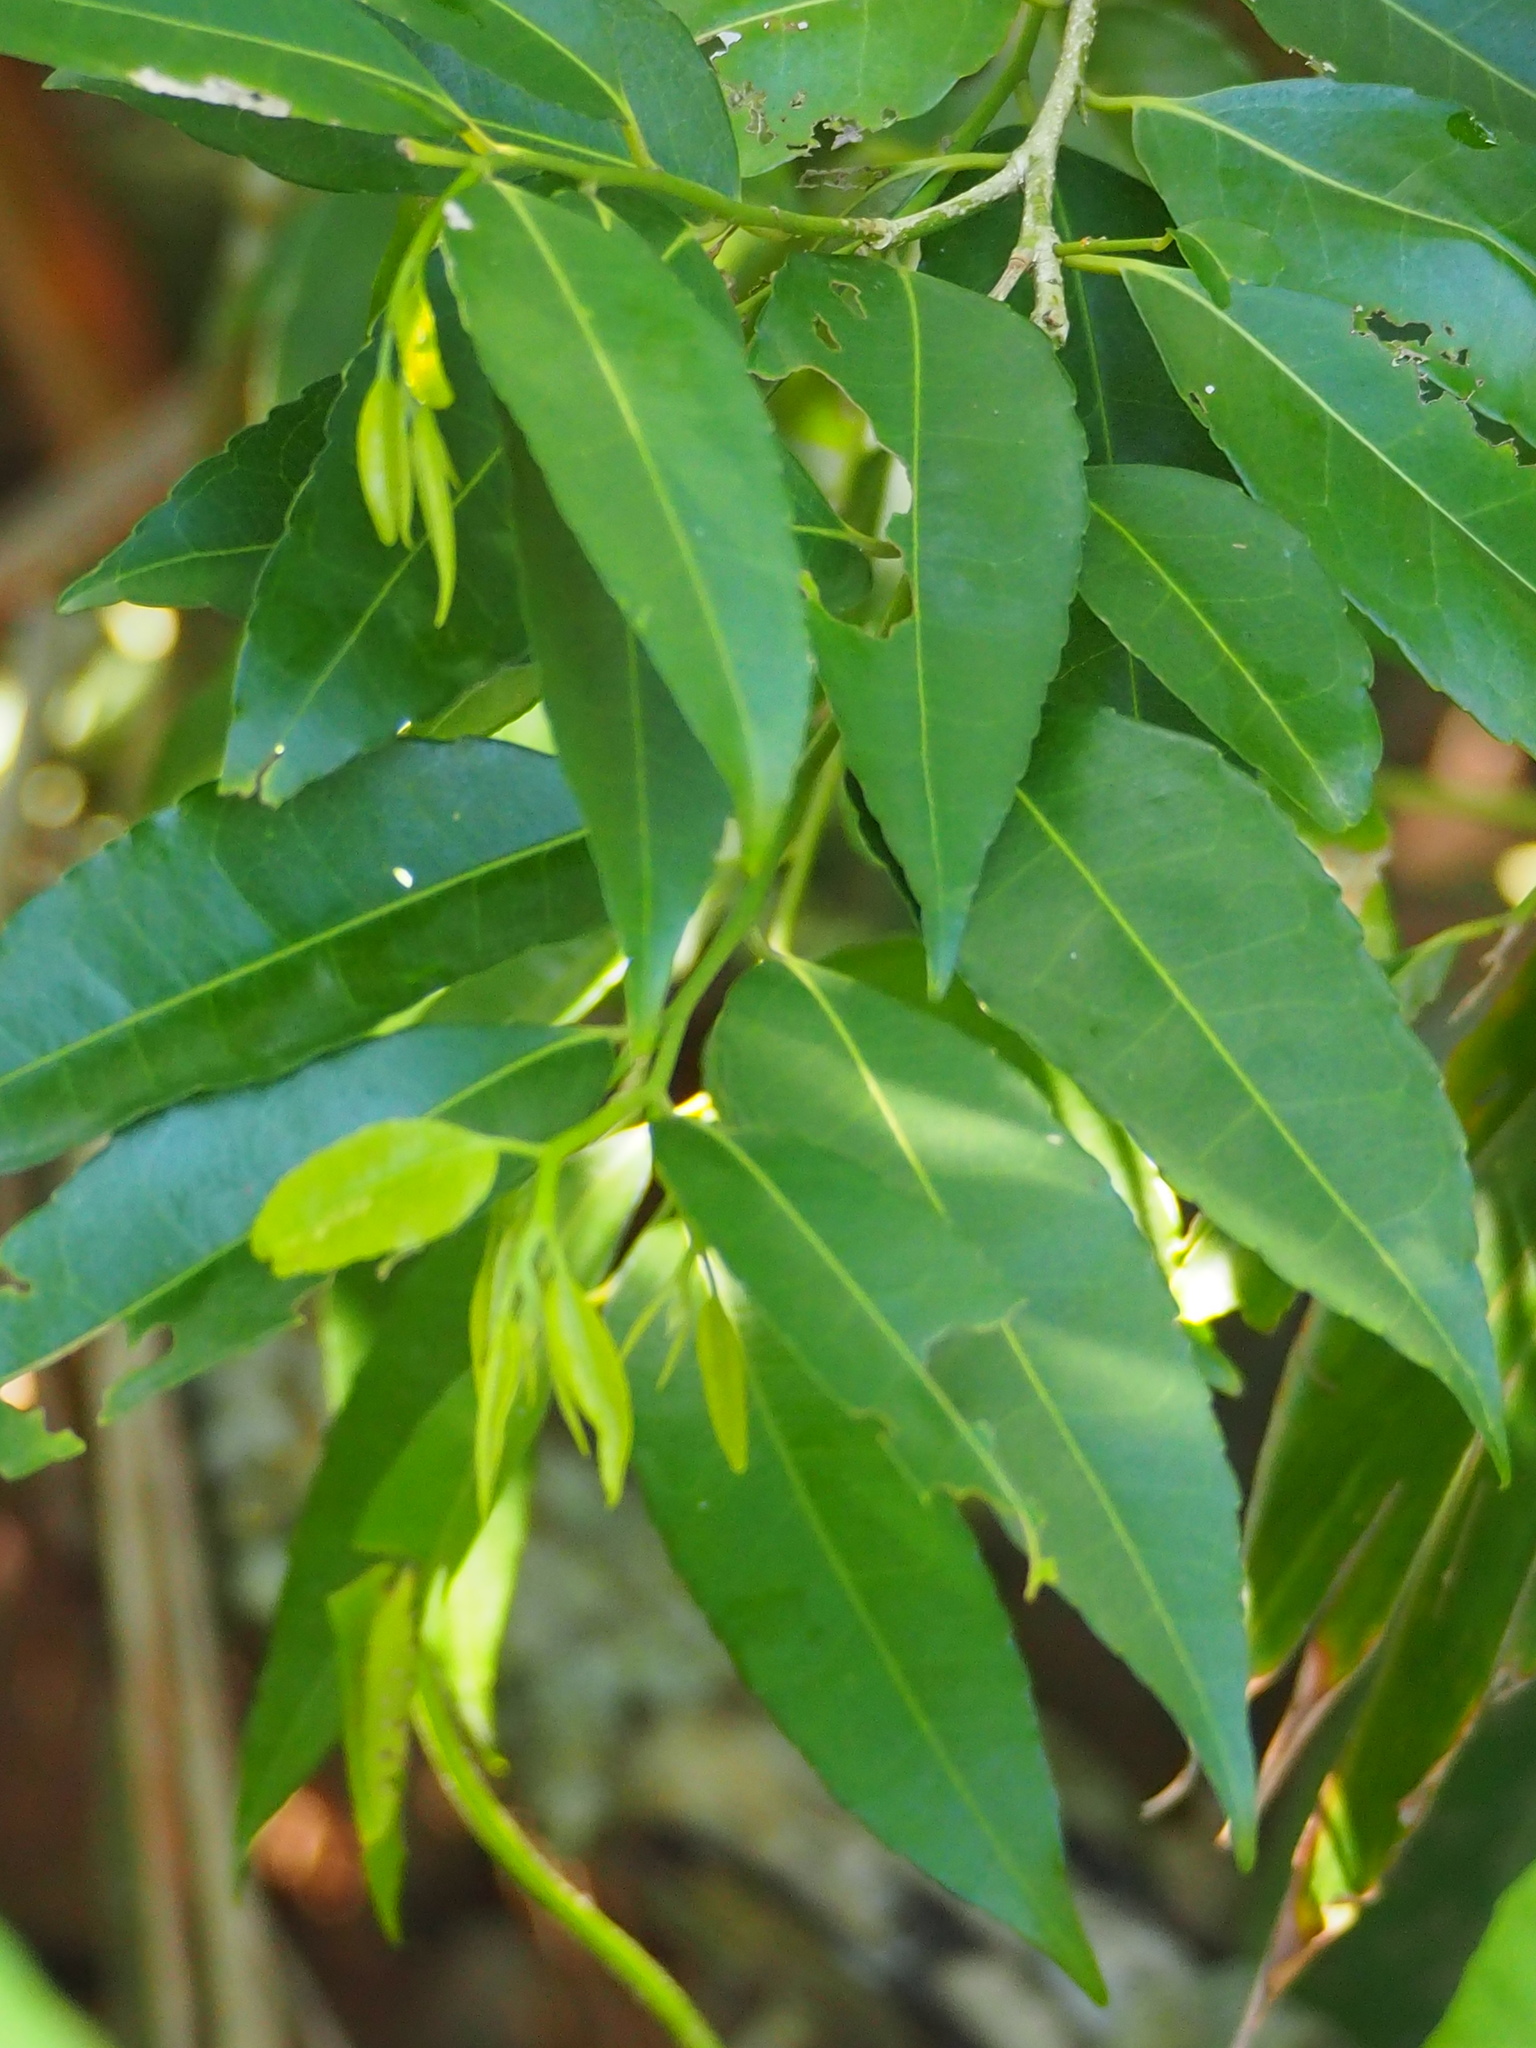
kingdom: Plantae
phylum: Tracheophyta
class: Magnoliopsida
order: Malpighiales
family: Putranjivaceae
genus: Putranjiva
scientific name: Putranjiva formosana
